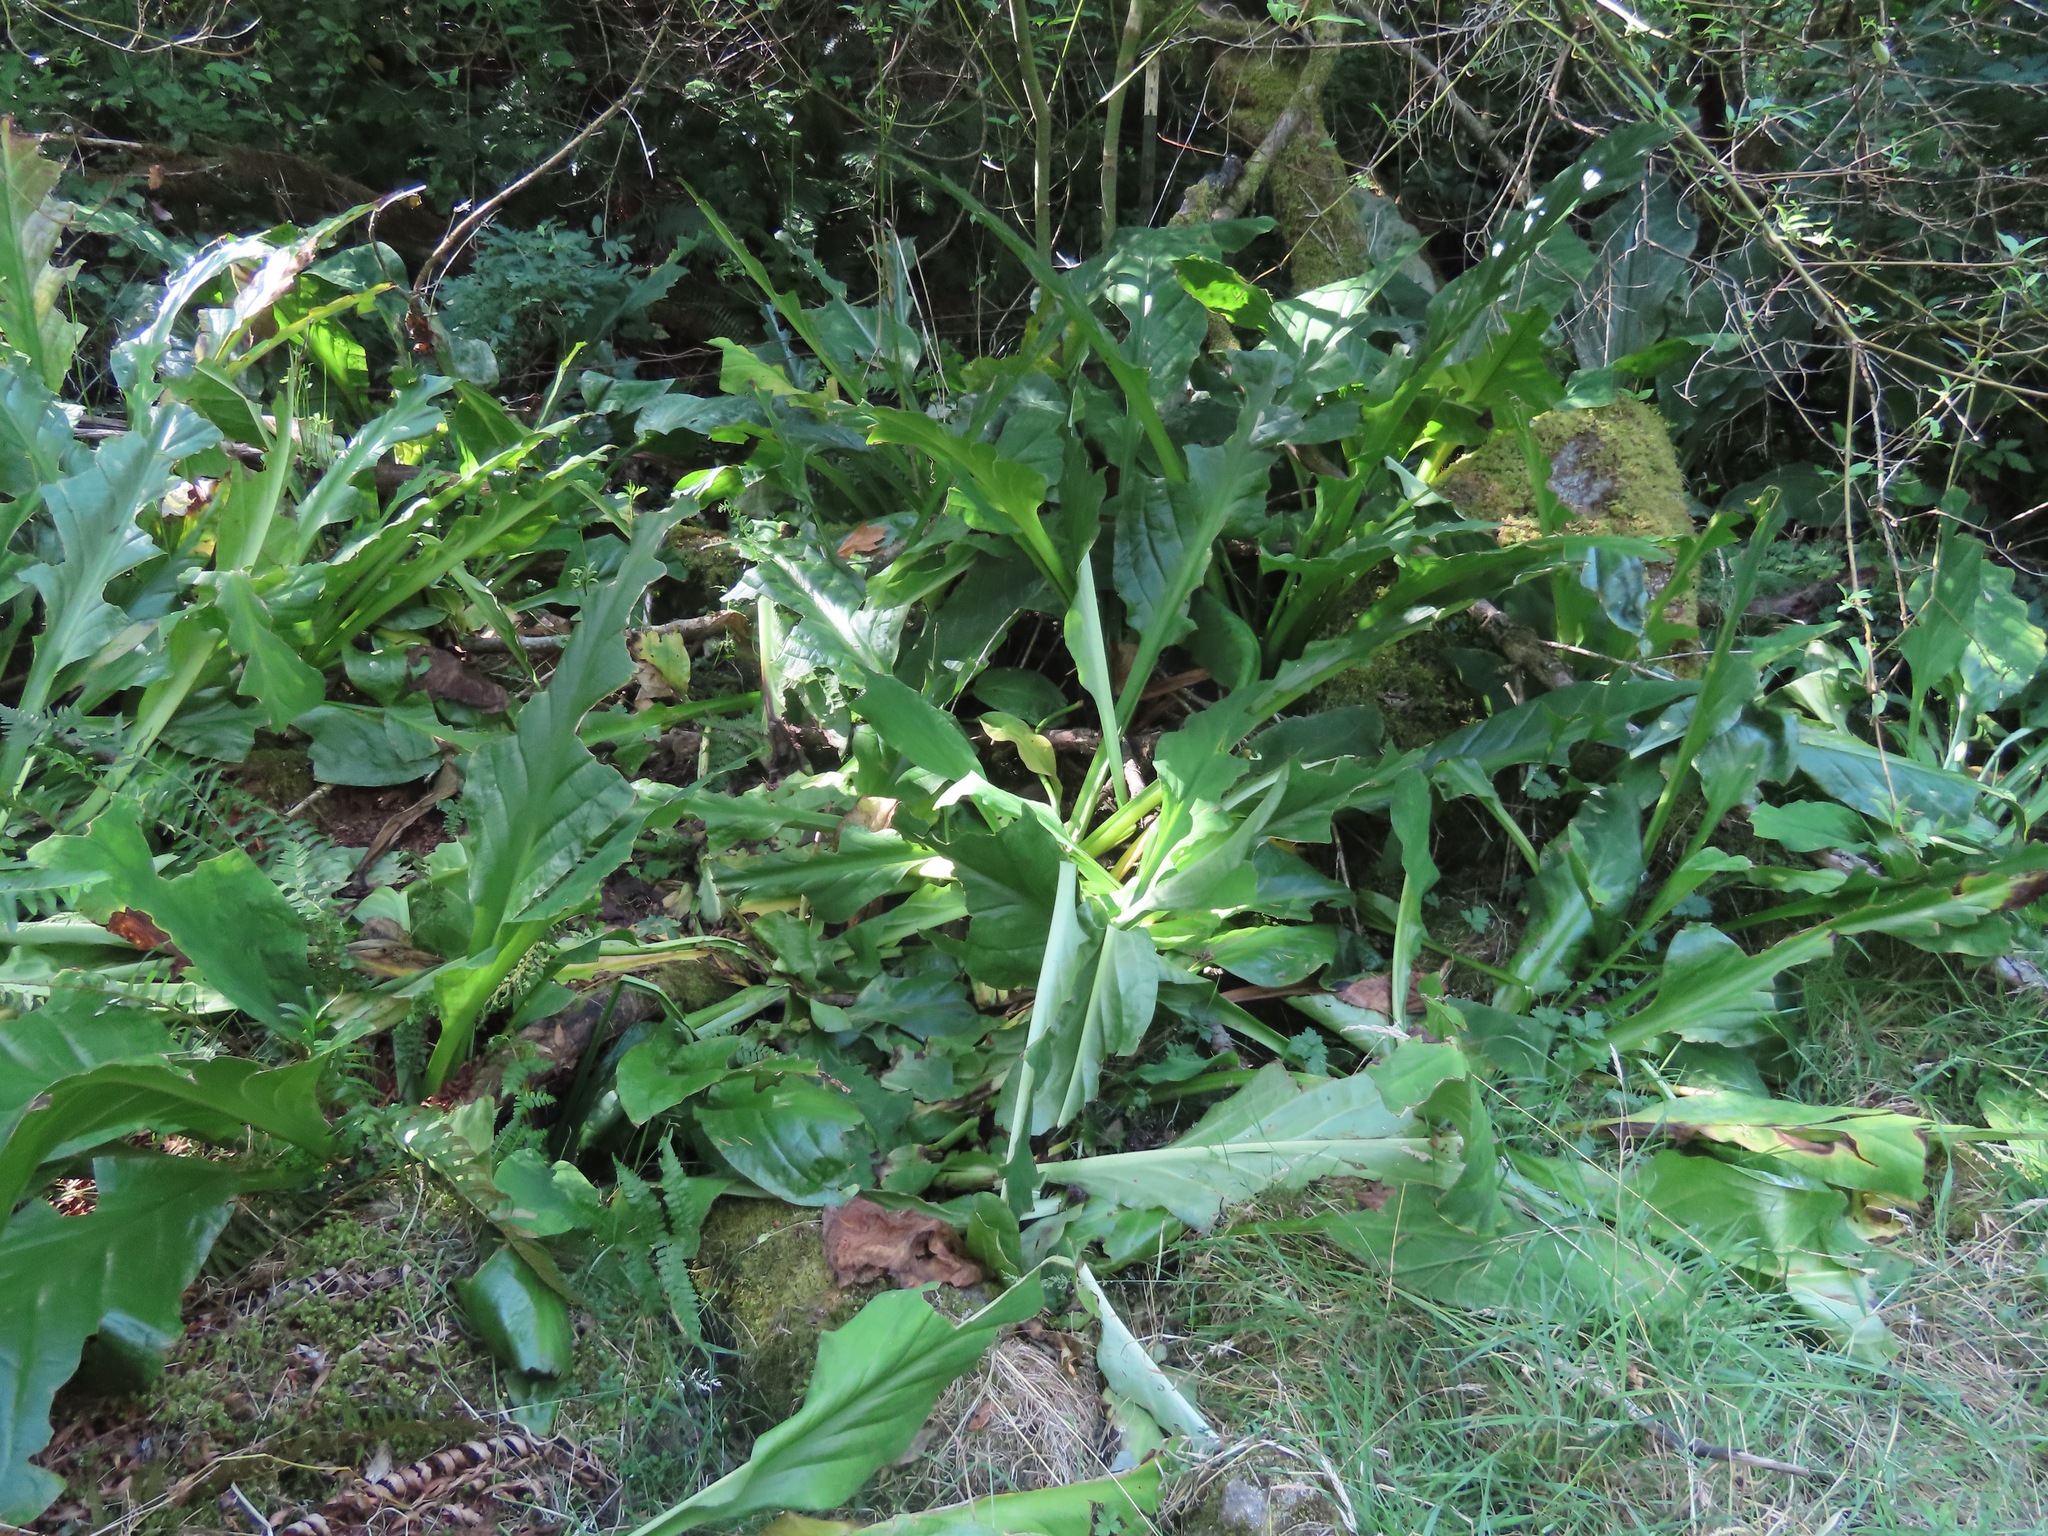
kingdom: Plantae
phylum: Tracheophyta
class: Liliopsida
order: Alismatales
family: Araceae
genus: Lysichiton
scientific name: Lysichiton americanus
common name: American skunk cabbage
